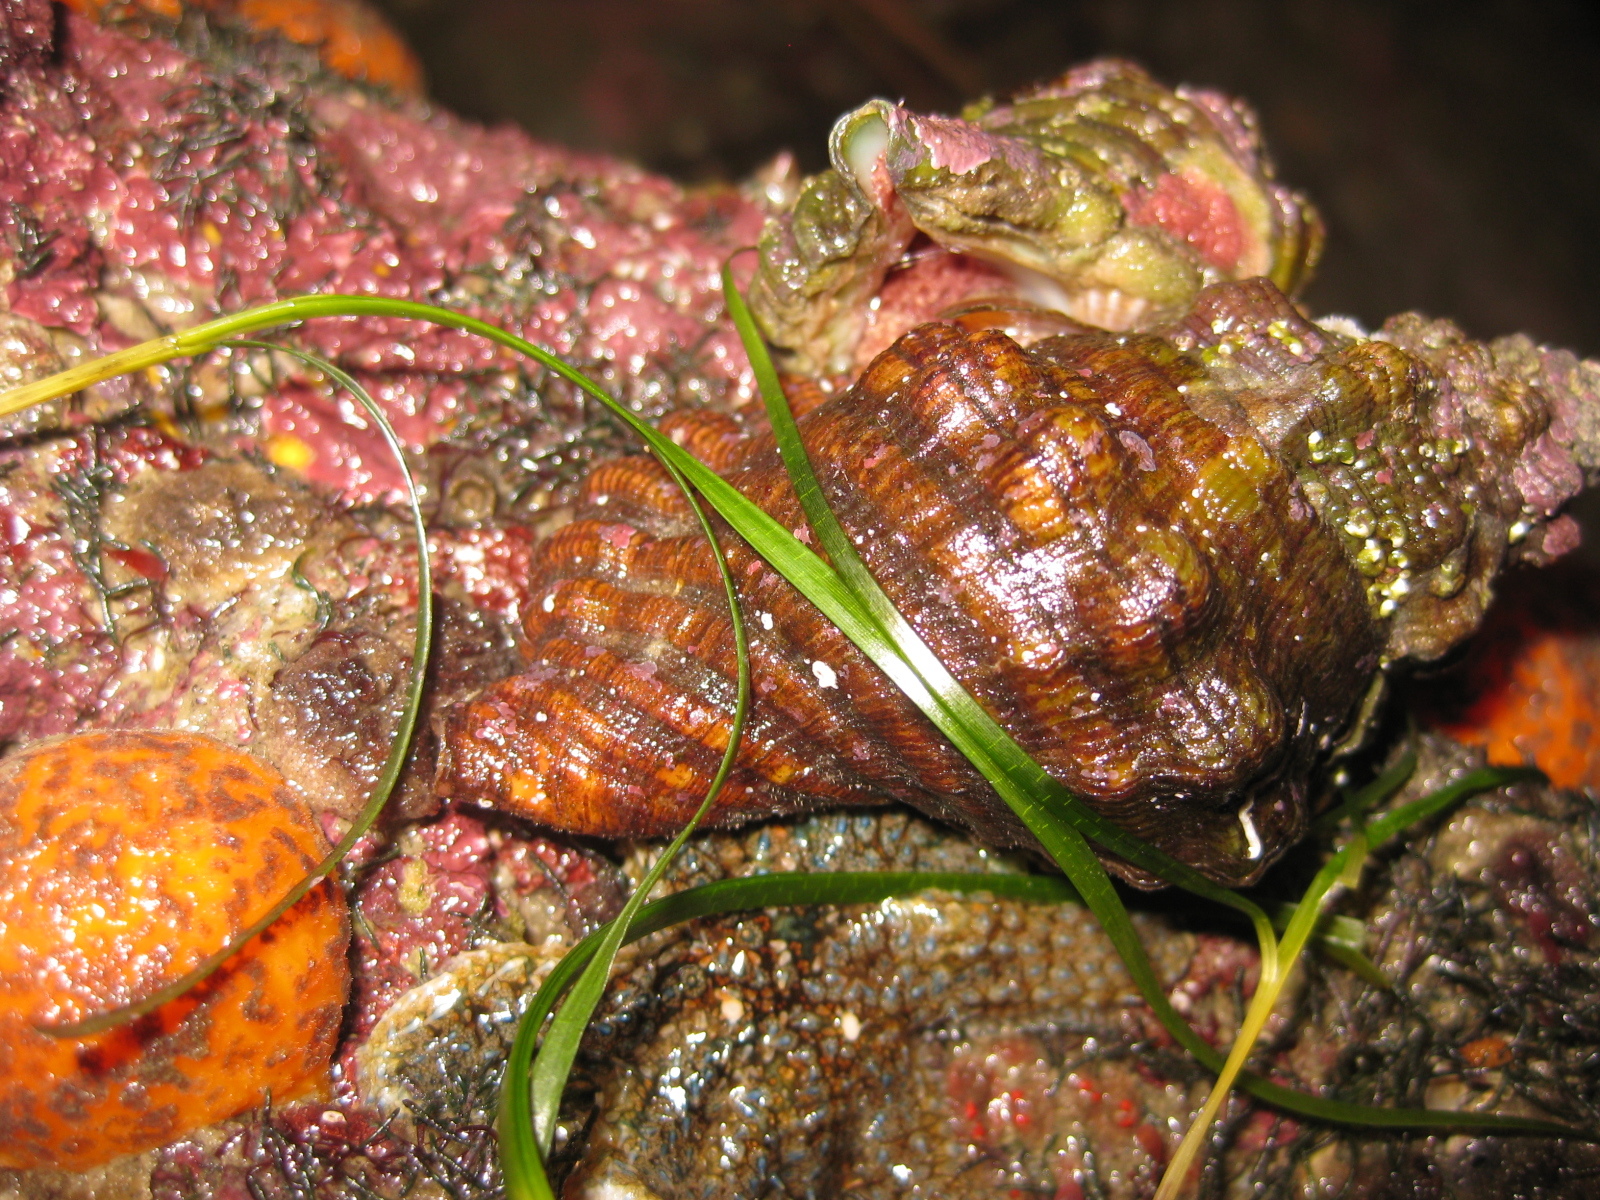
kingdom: Plantae
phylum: Tracheophyta
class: Liliopsida
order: Alismatales
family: Zosteraceae
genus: Zostera
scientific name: Zostera novazelandica
